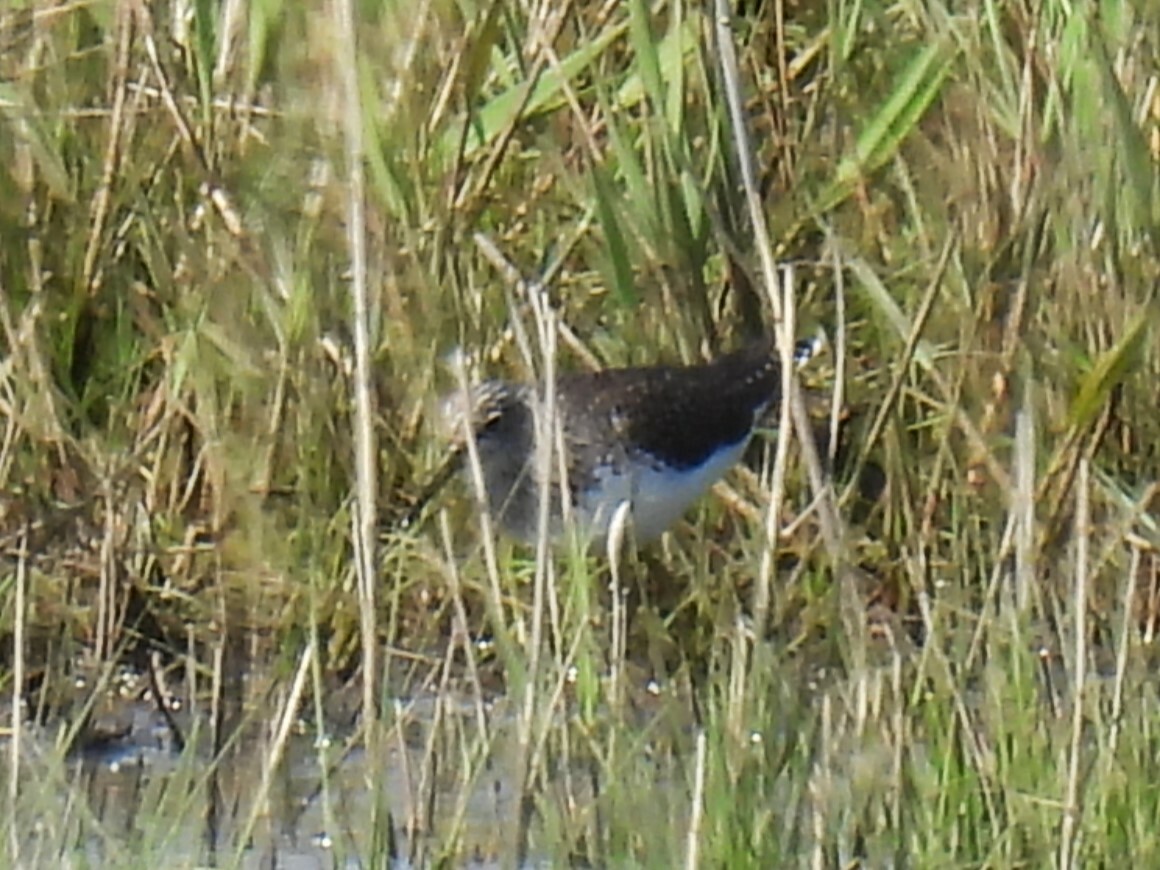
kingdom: Animalia
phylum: Chordata
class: Aves
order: Charadriiformes
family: Scolopacidae
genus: Tringa
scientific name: Tringa ochropus
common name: Green sandpiper
